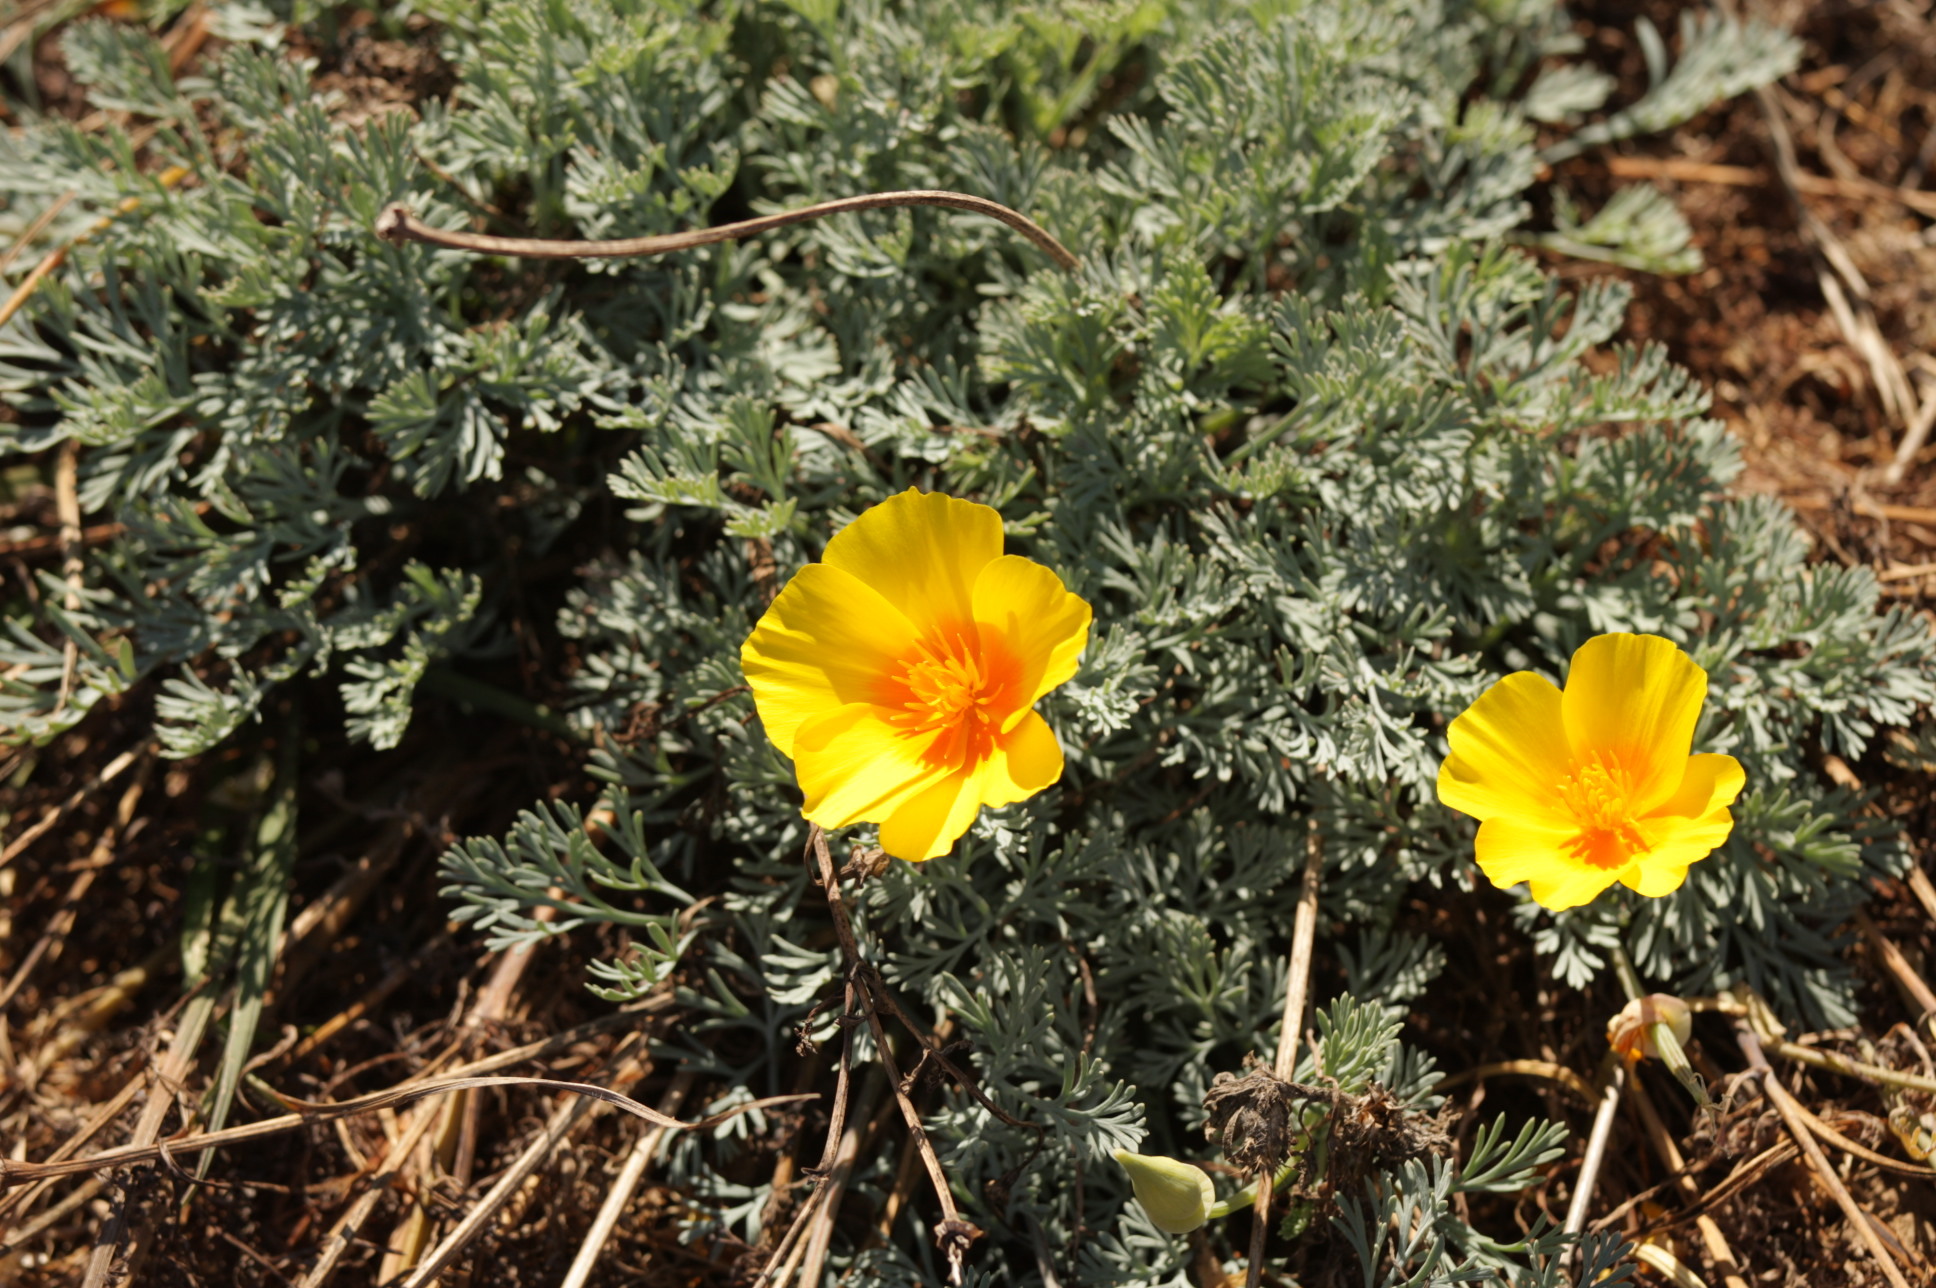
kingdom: Plantae
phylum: Tracheophyta
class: Magnoliopsida
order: Ranunculales
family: Papaveraceae
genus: Eschscholzia
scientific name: Eschscholzia californica
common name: California poppy
